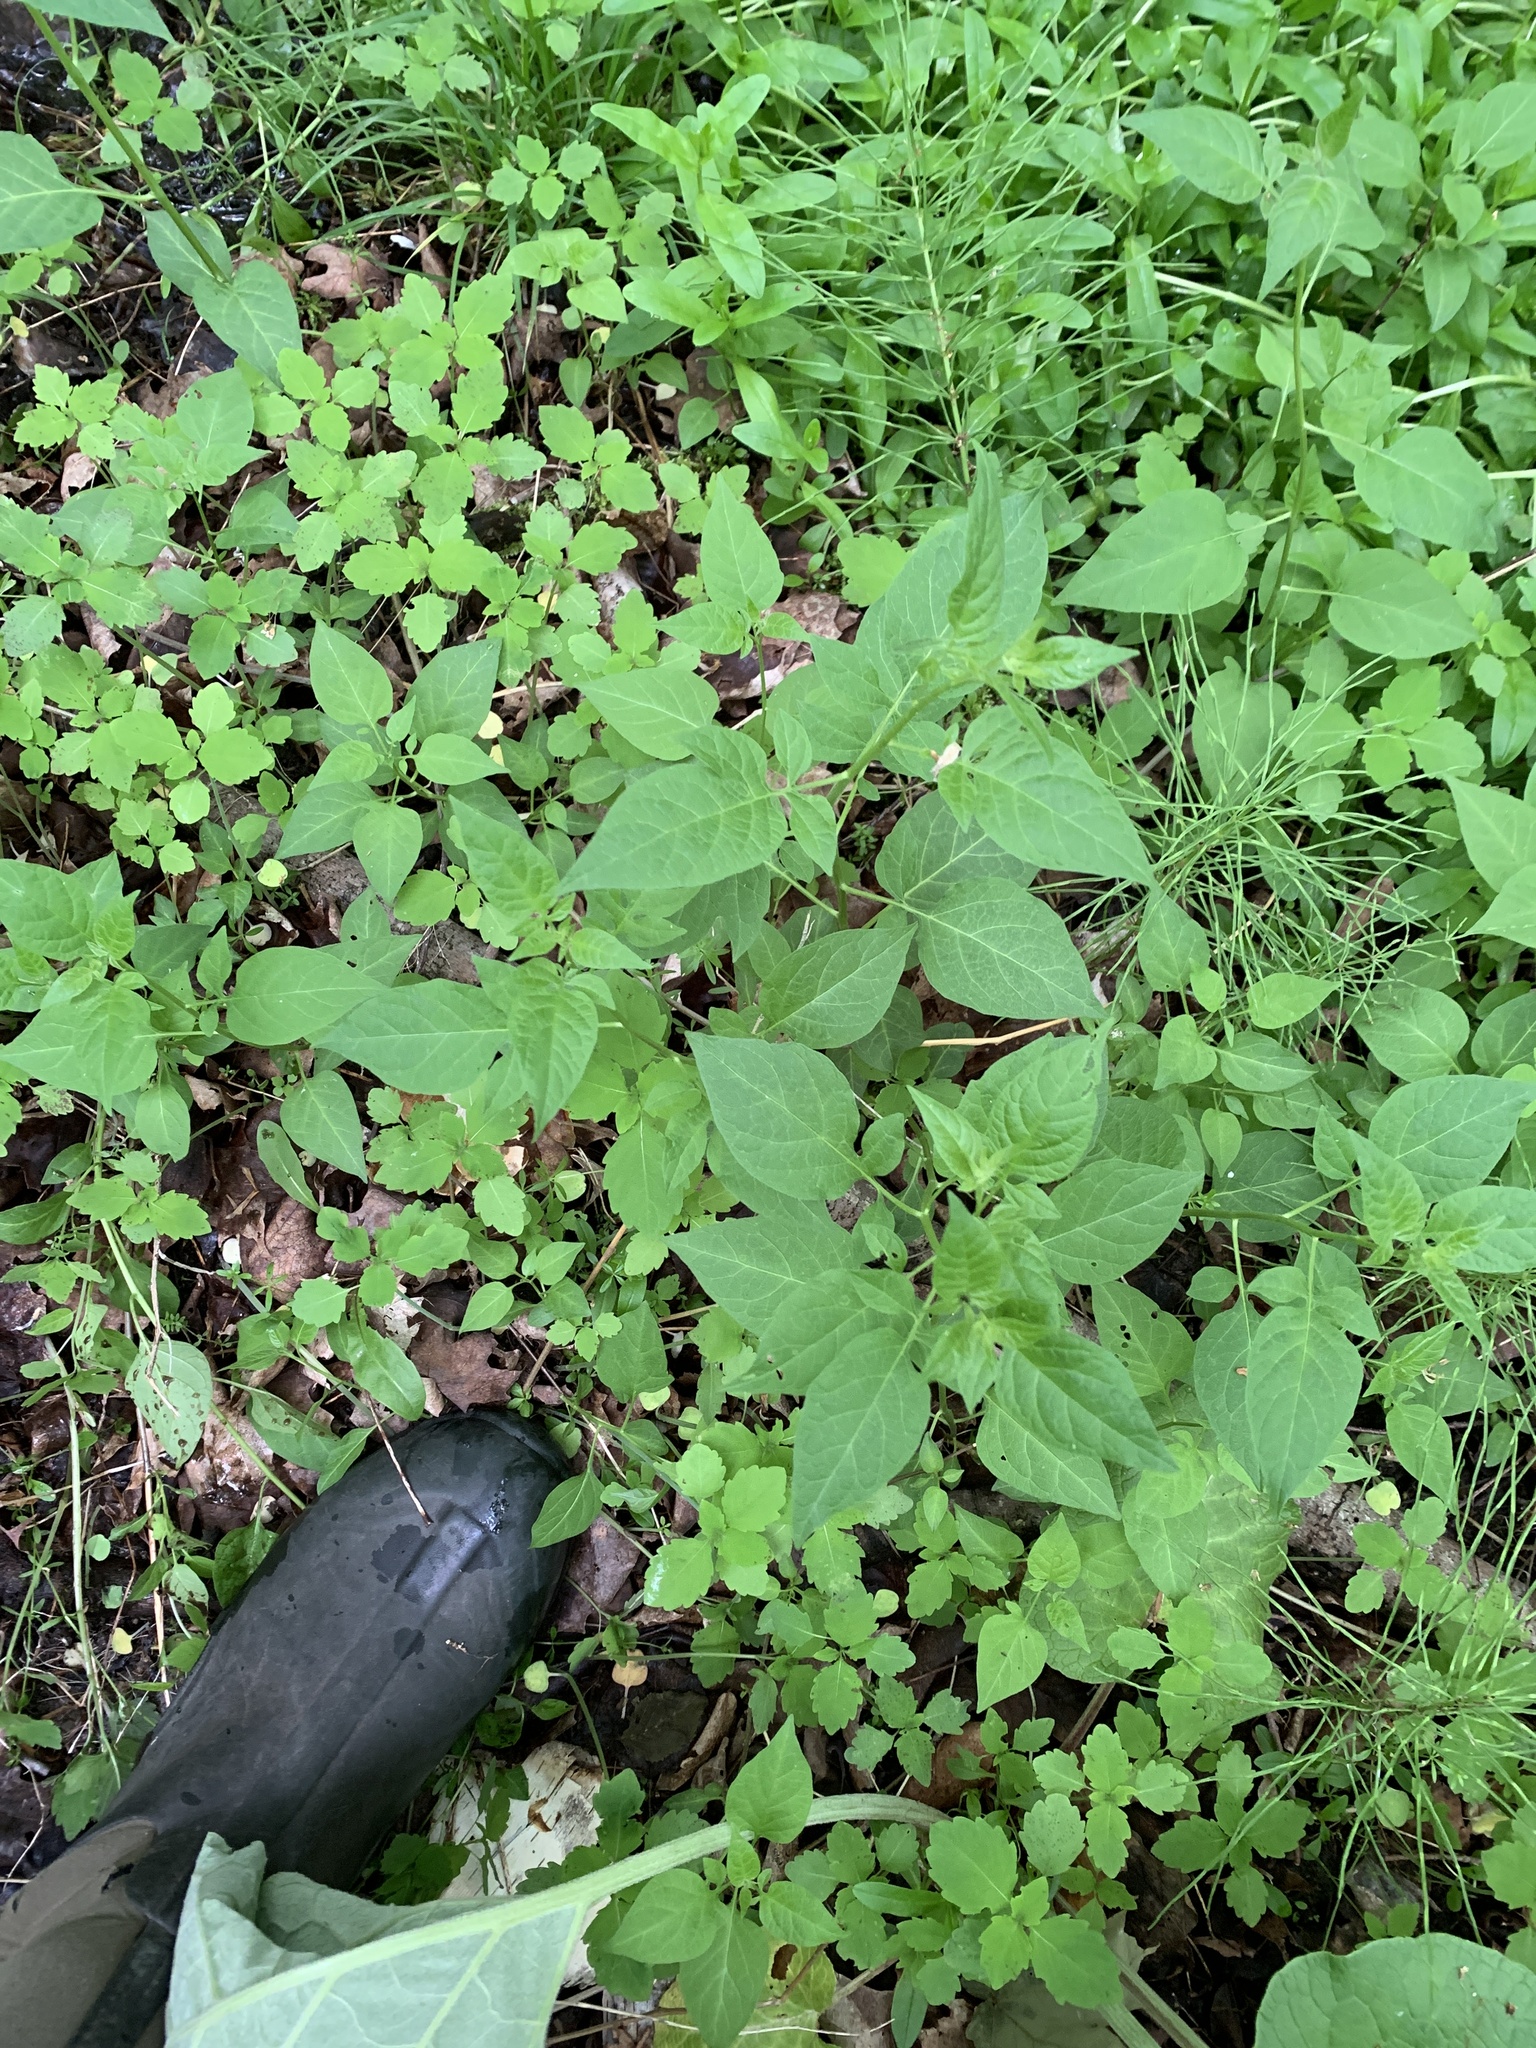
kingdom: Plantae
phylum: Tracheophyta
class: Magnoliopsida
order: Solanales
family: Solanaceae
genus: Solanum
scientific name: Solanum dulcamara
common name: Climbing nightshade
